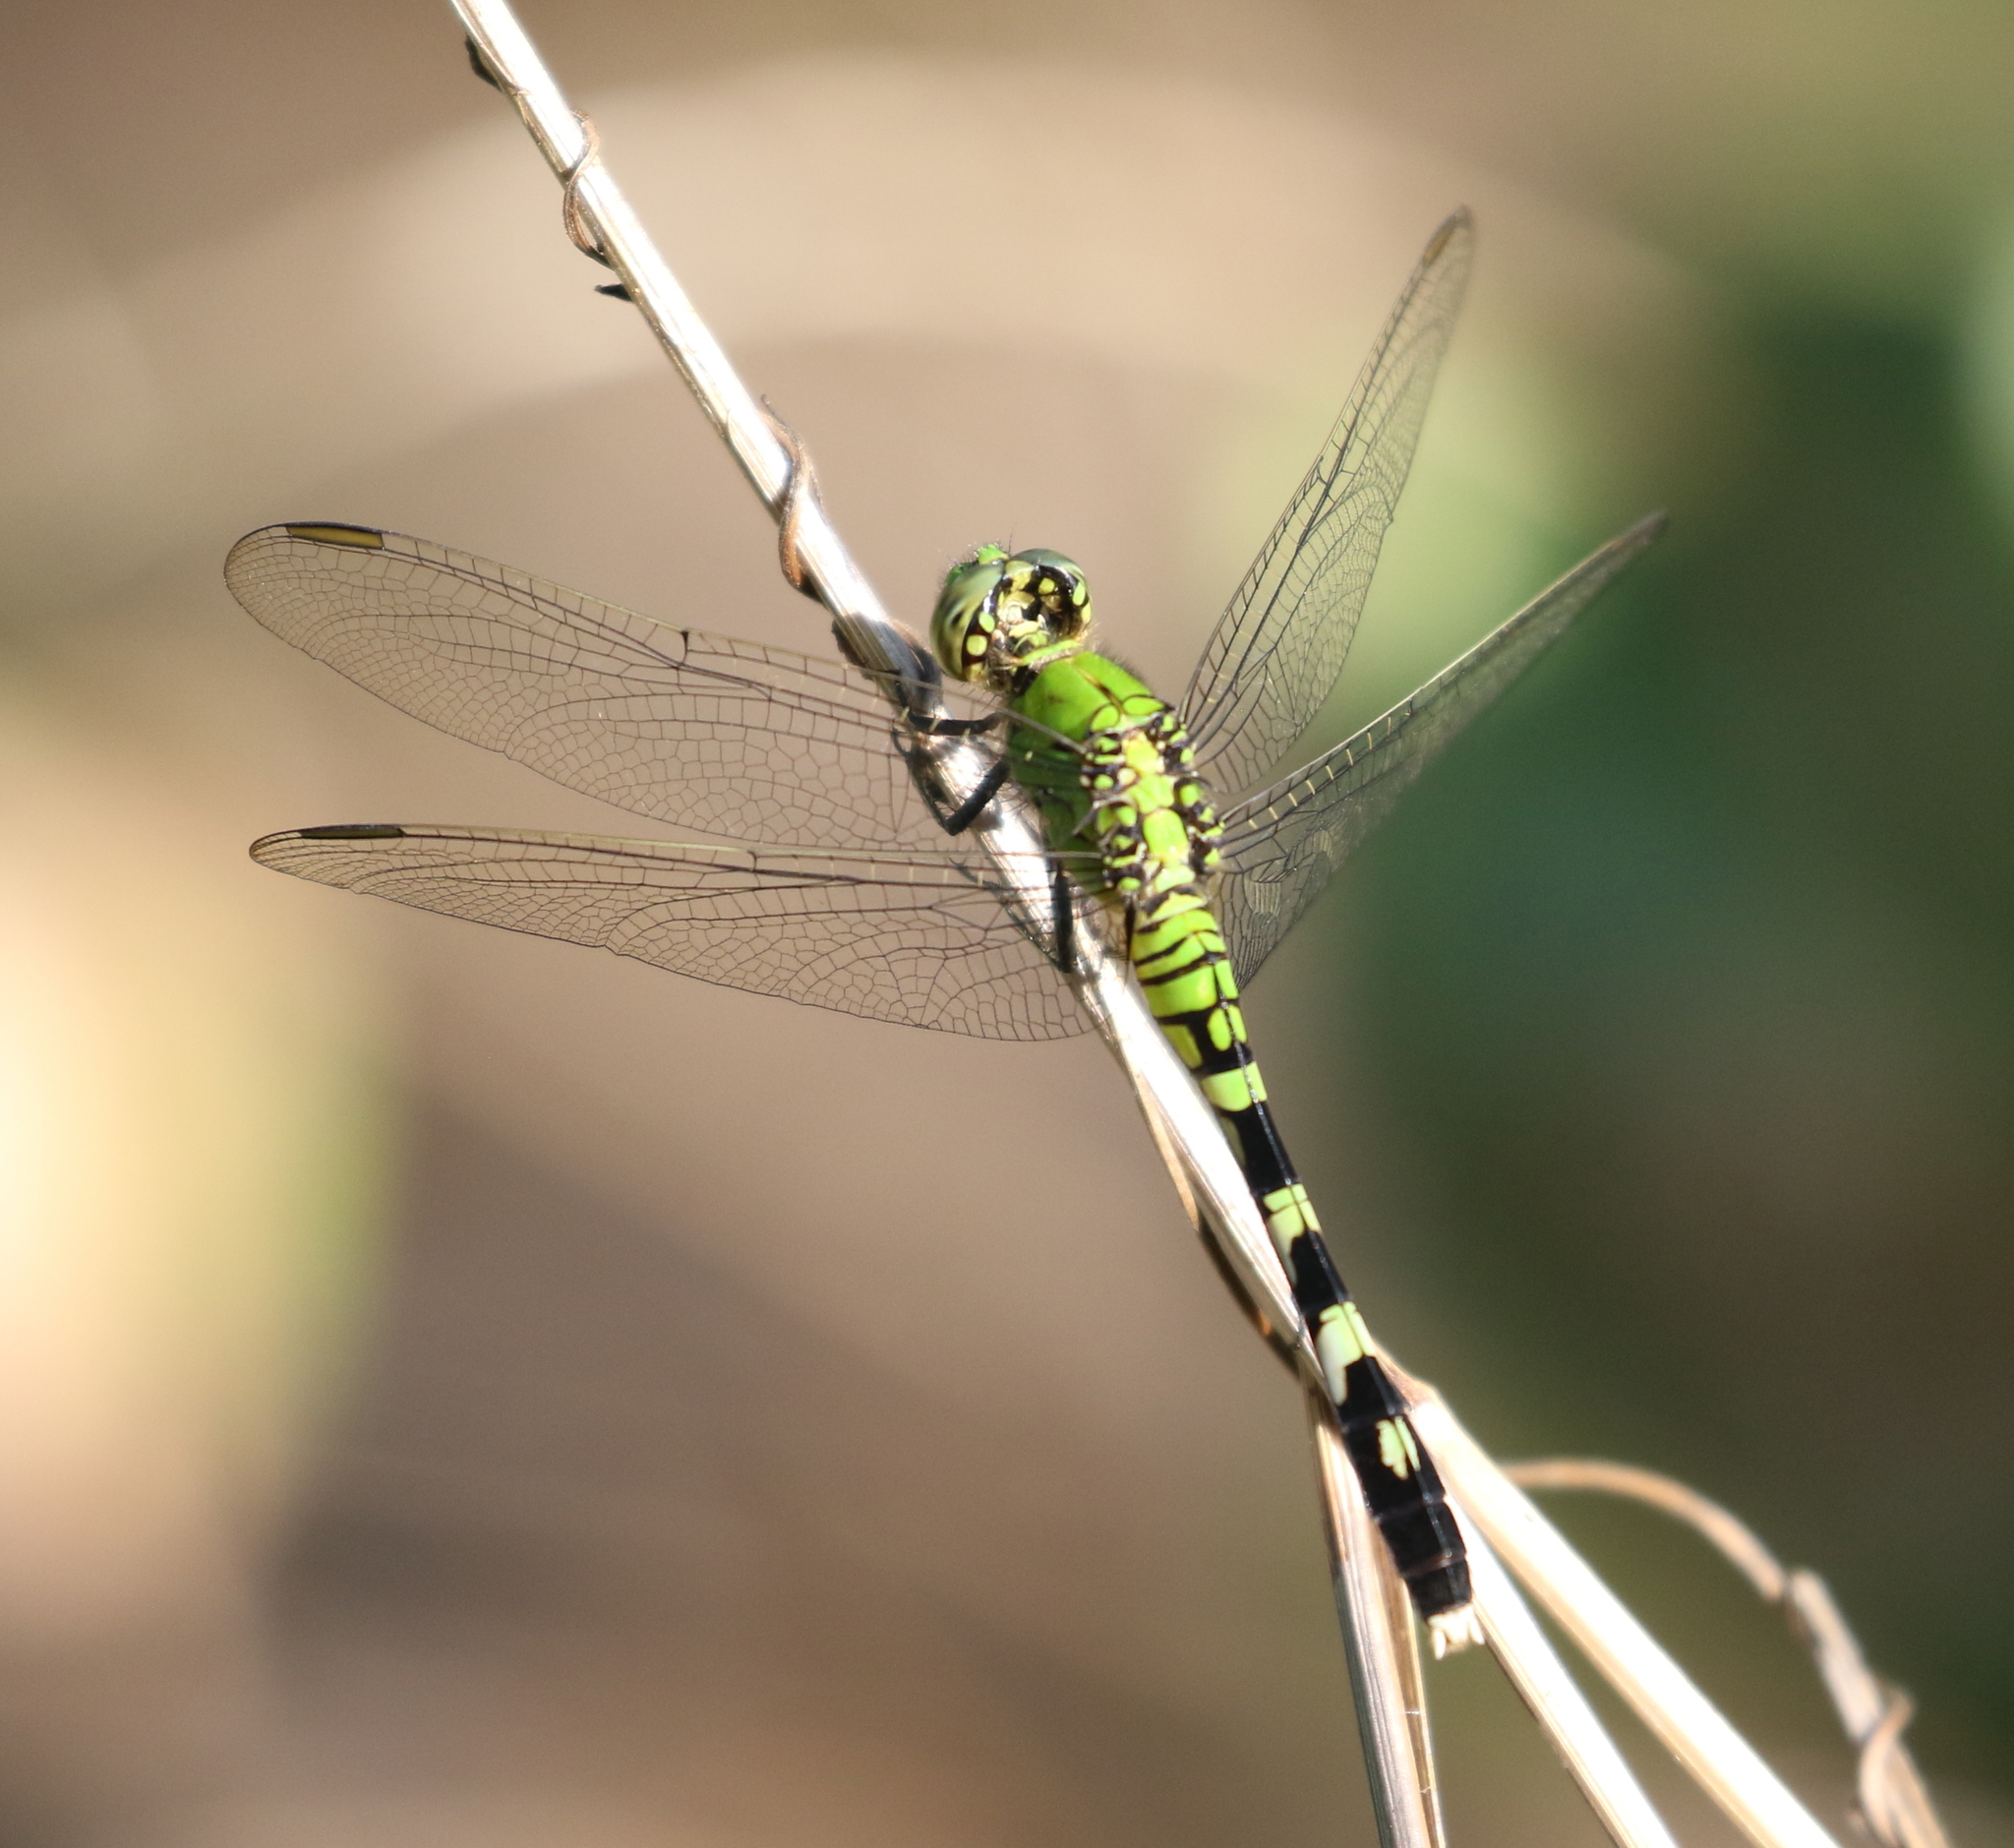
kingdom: Animalia
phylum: Arthropoda
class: Insecta
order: Odonata
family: Libellulidae
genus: Erythemis
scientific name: Erythemis simplicicollis
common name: Eastern pondhawk
